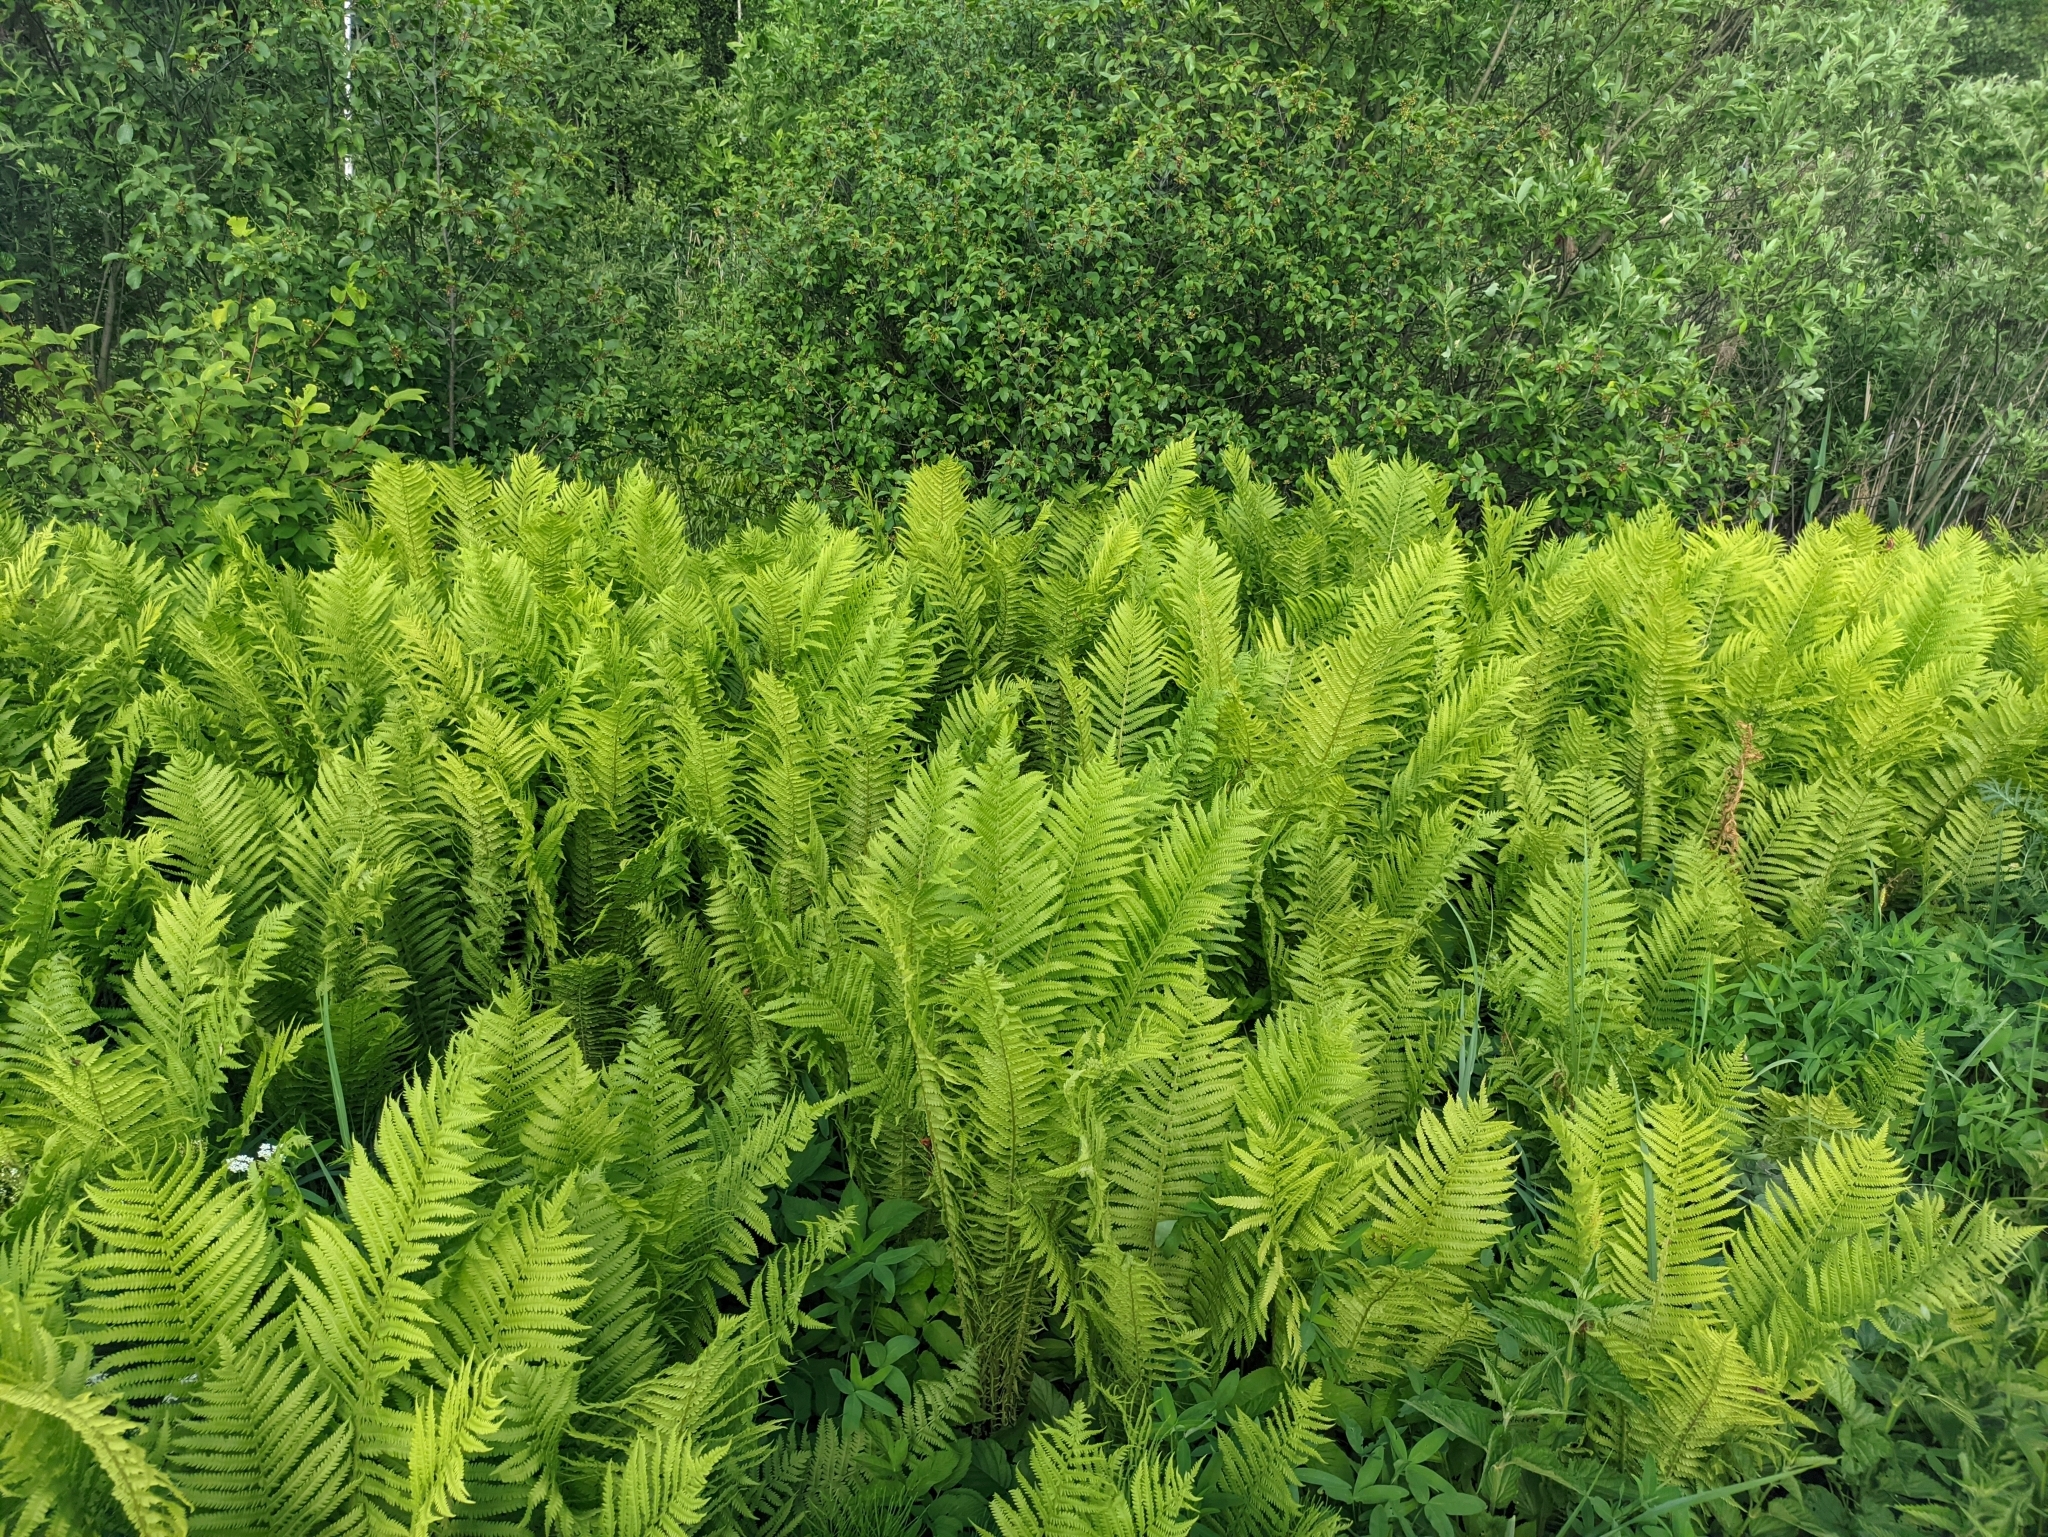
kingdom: Plantae
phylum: Tracheophyta
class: Polypodiopsida
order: Polypodiales
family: Onocleaceae
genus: Matteuccia
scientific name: Matteuccia struthiopteris
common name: Ostrich fern
